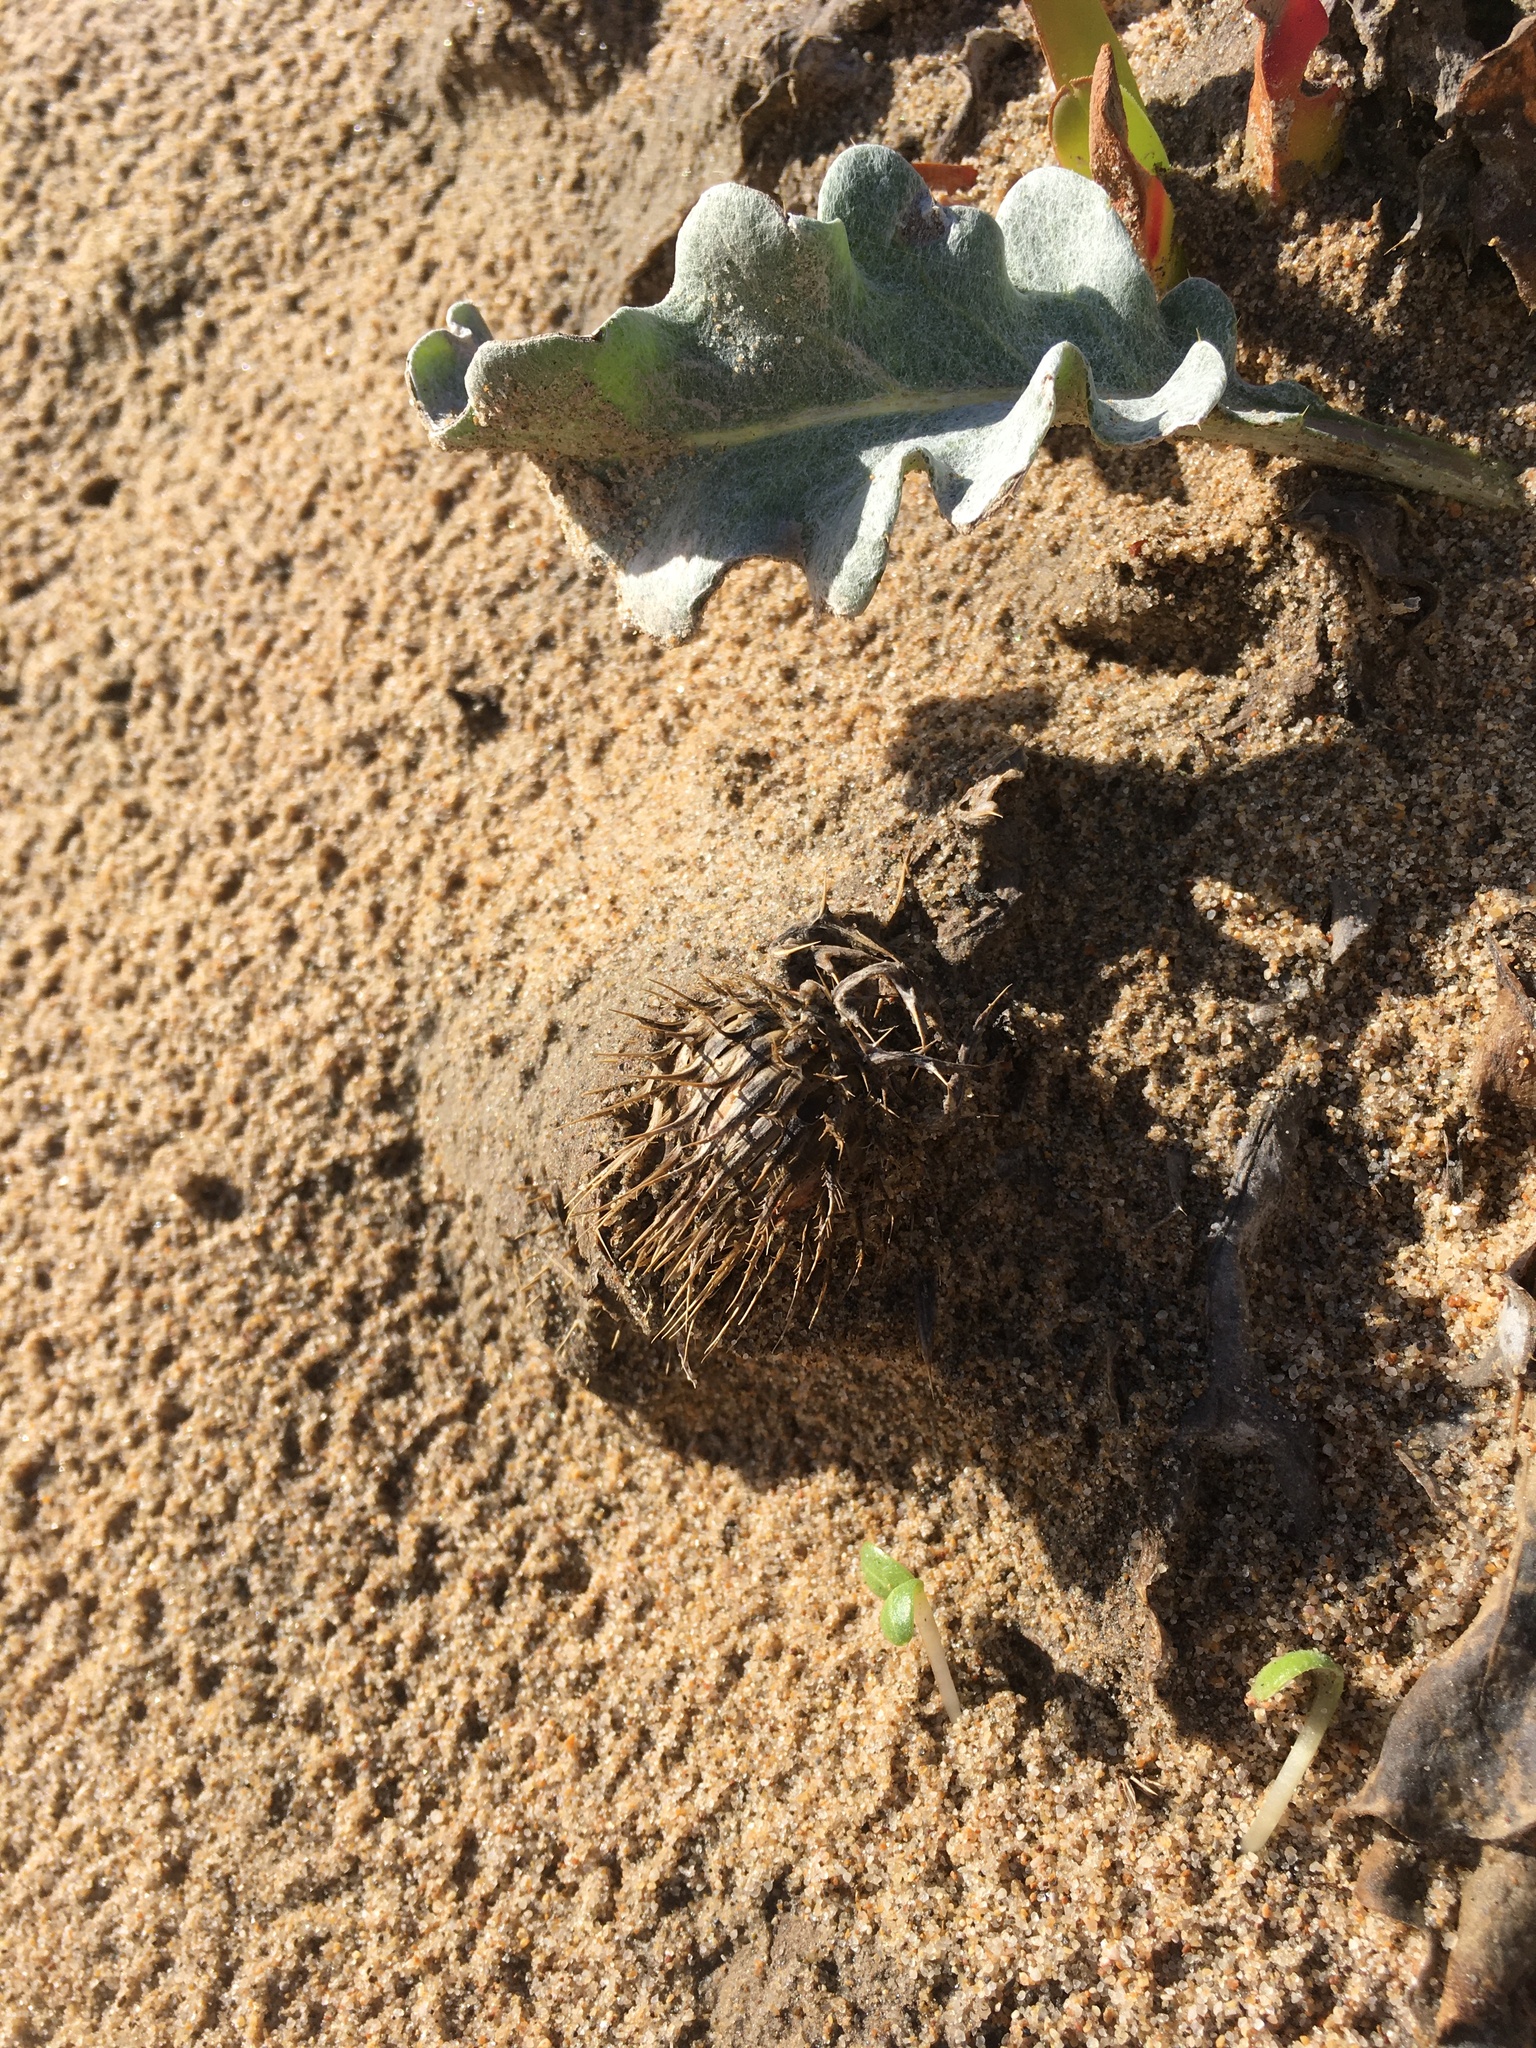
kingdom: Plantae
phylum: Tracheophyta
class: Magnoliopsida
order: Asterales
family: Asteraceae
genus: Cirsium
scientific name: Cirsium rhothophilum
